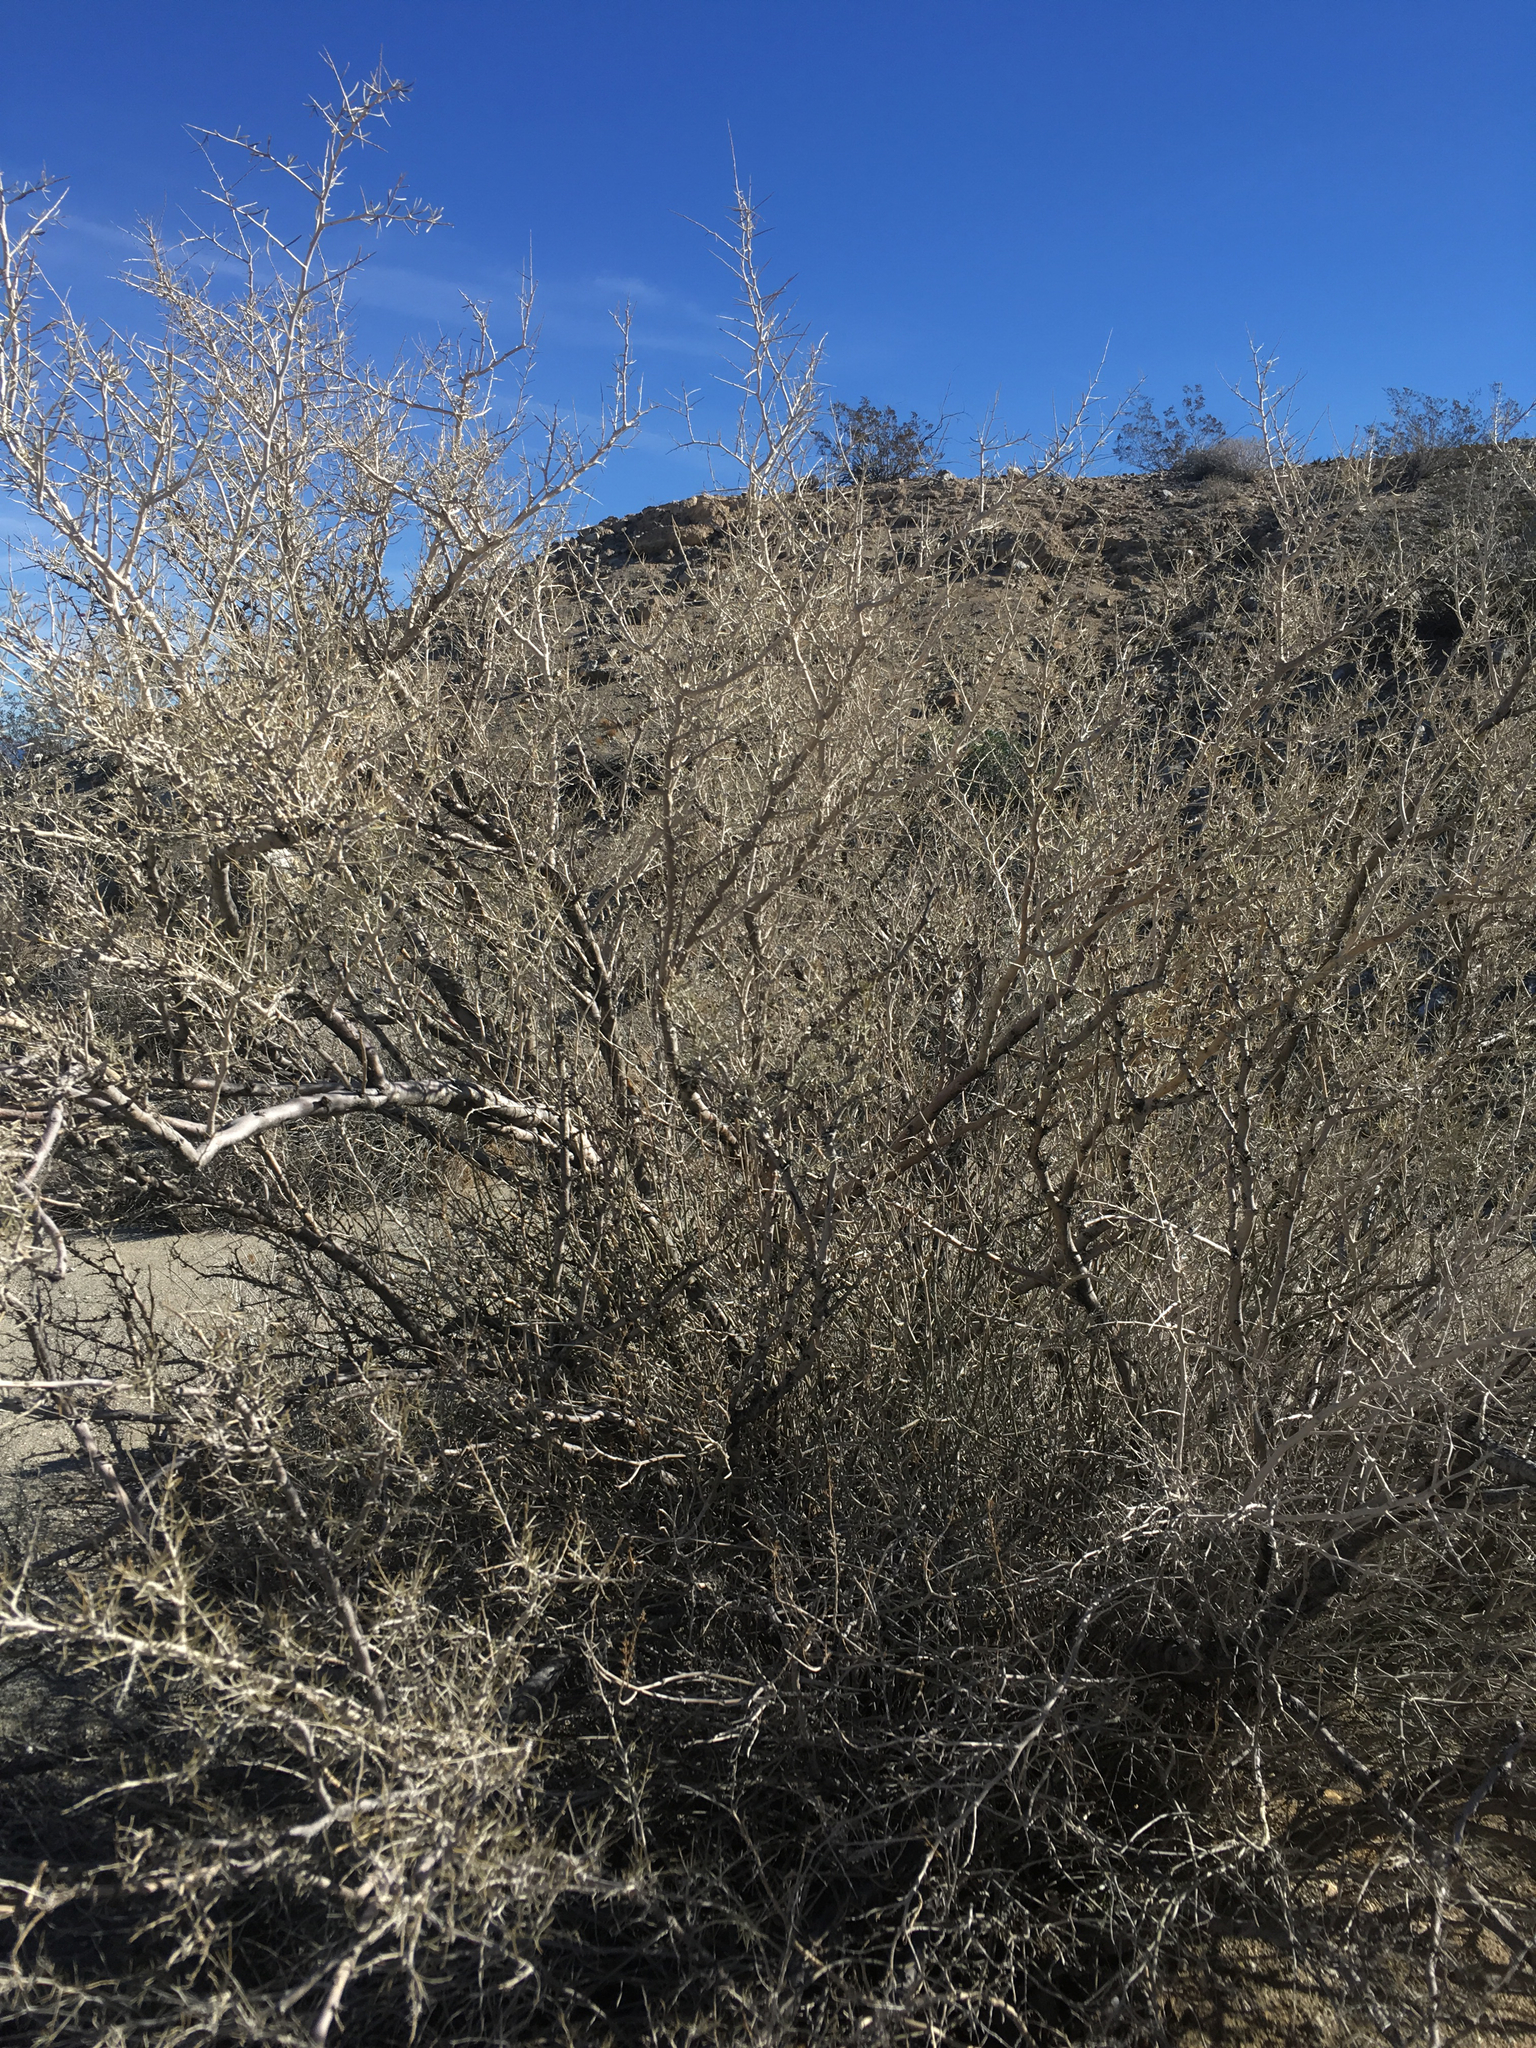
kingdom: Plantae
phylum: Tracheophyta
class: Magnoliopsida
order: Fabales
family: Fabaceae
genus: Psorothamnus
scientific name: Psorothamnus schottii
